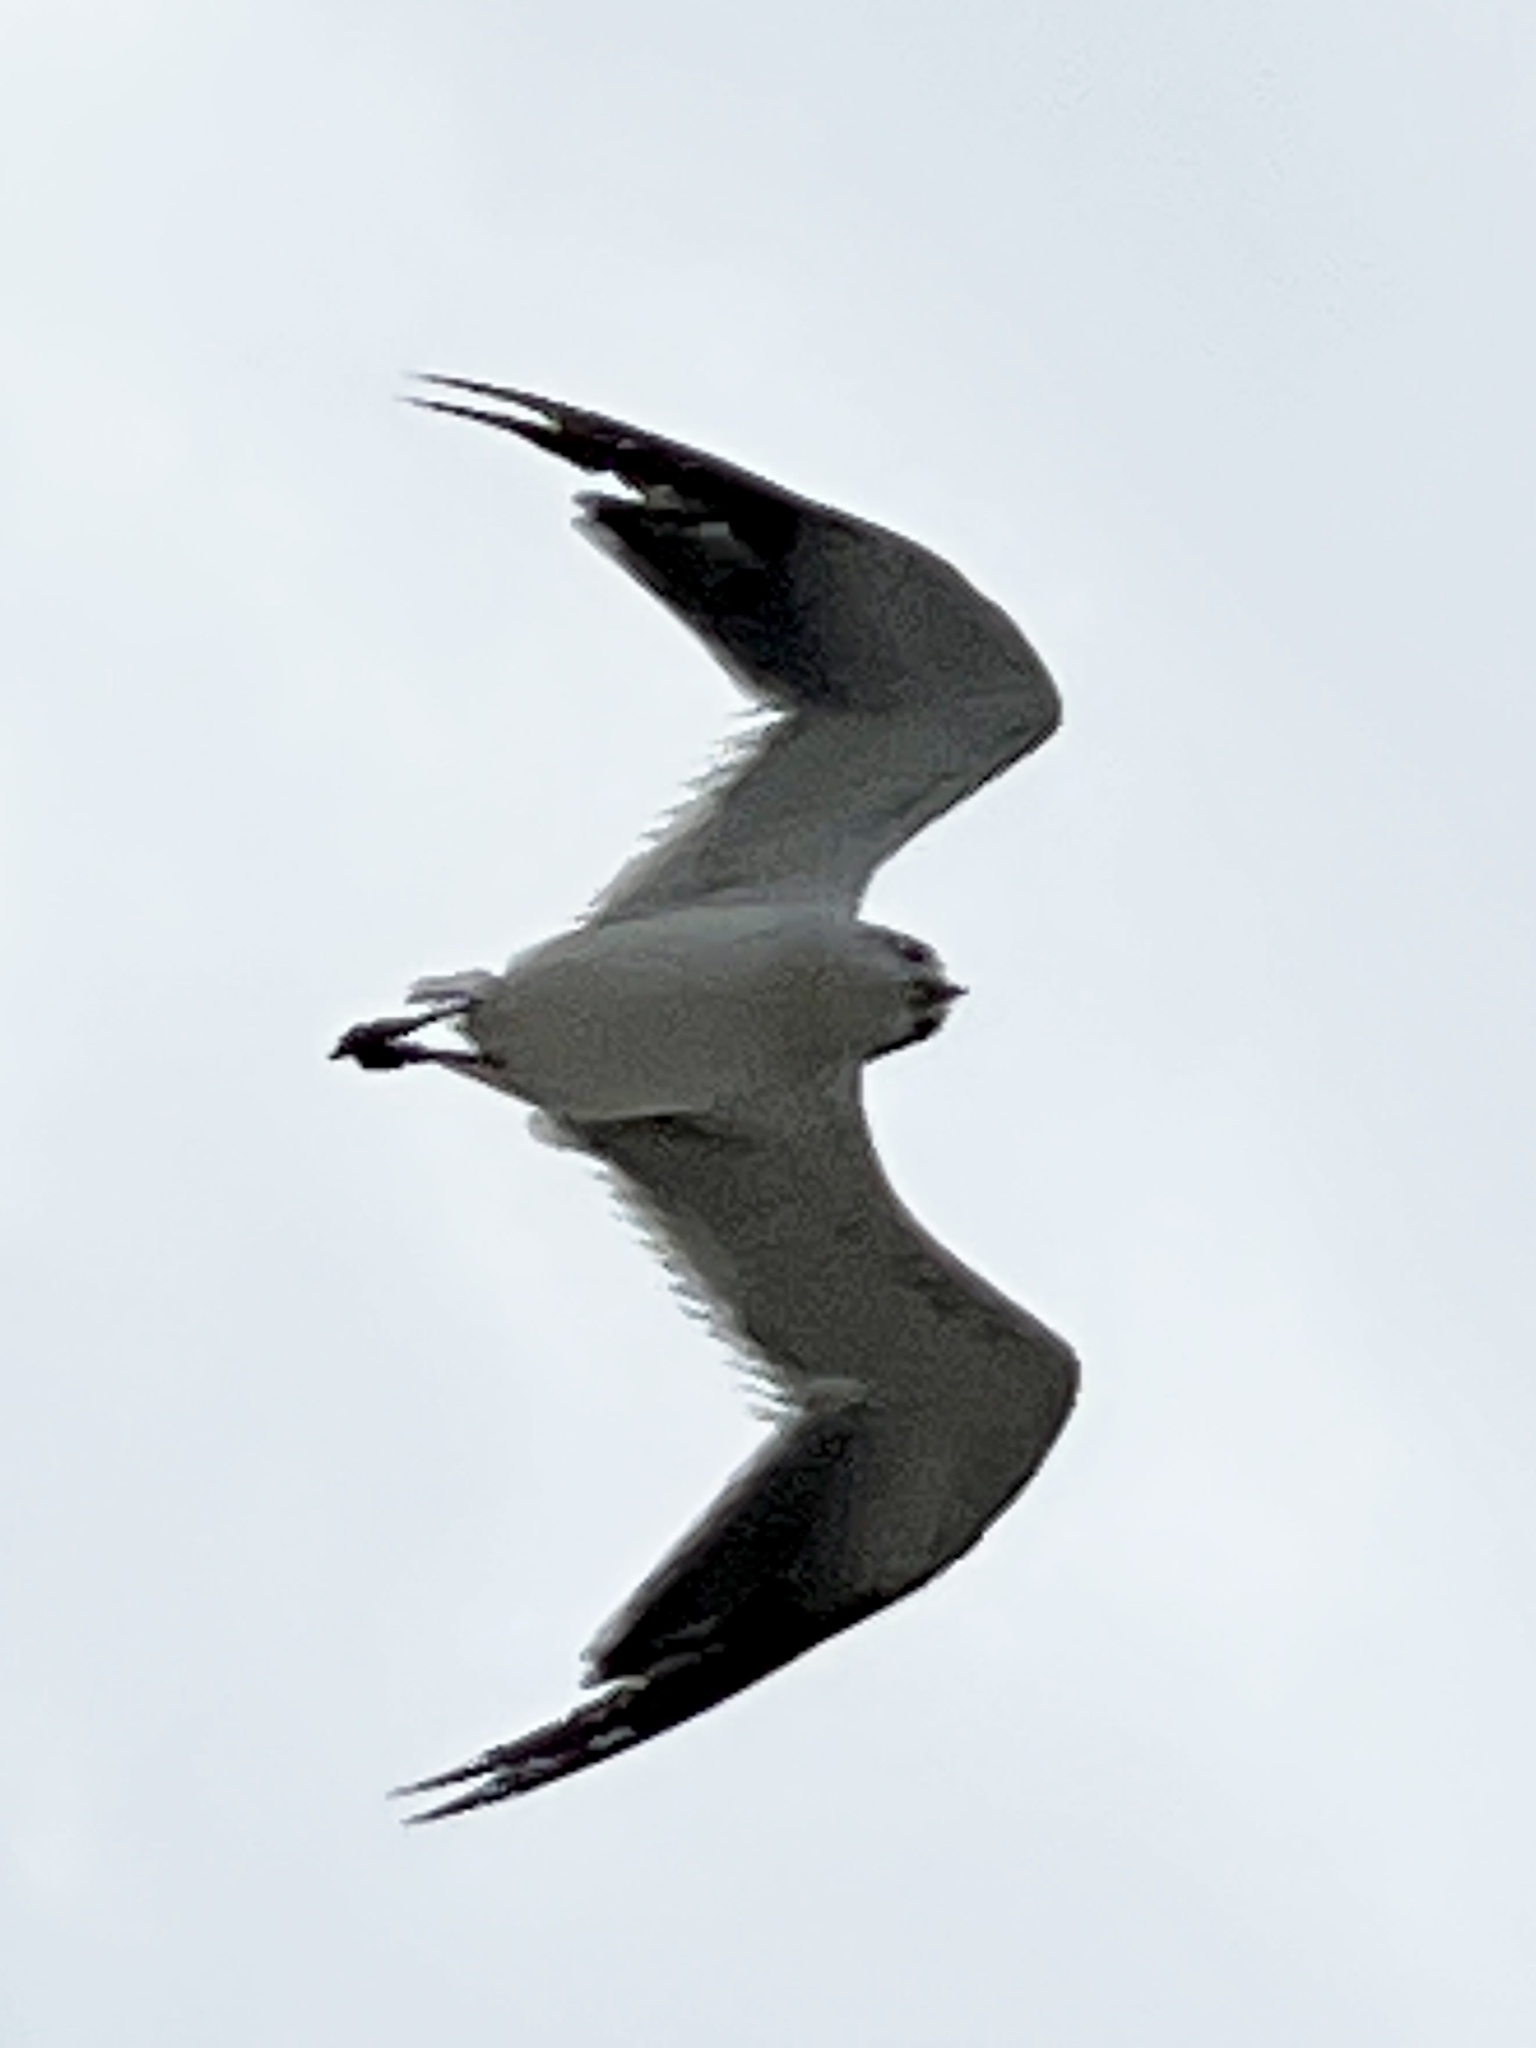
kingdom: Animalia
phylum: Chordata
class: Aves
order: Charadriiformes
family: Laridae
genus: Leucophaeus
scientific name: Leucophaeus atricilla
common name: Laughing gull
